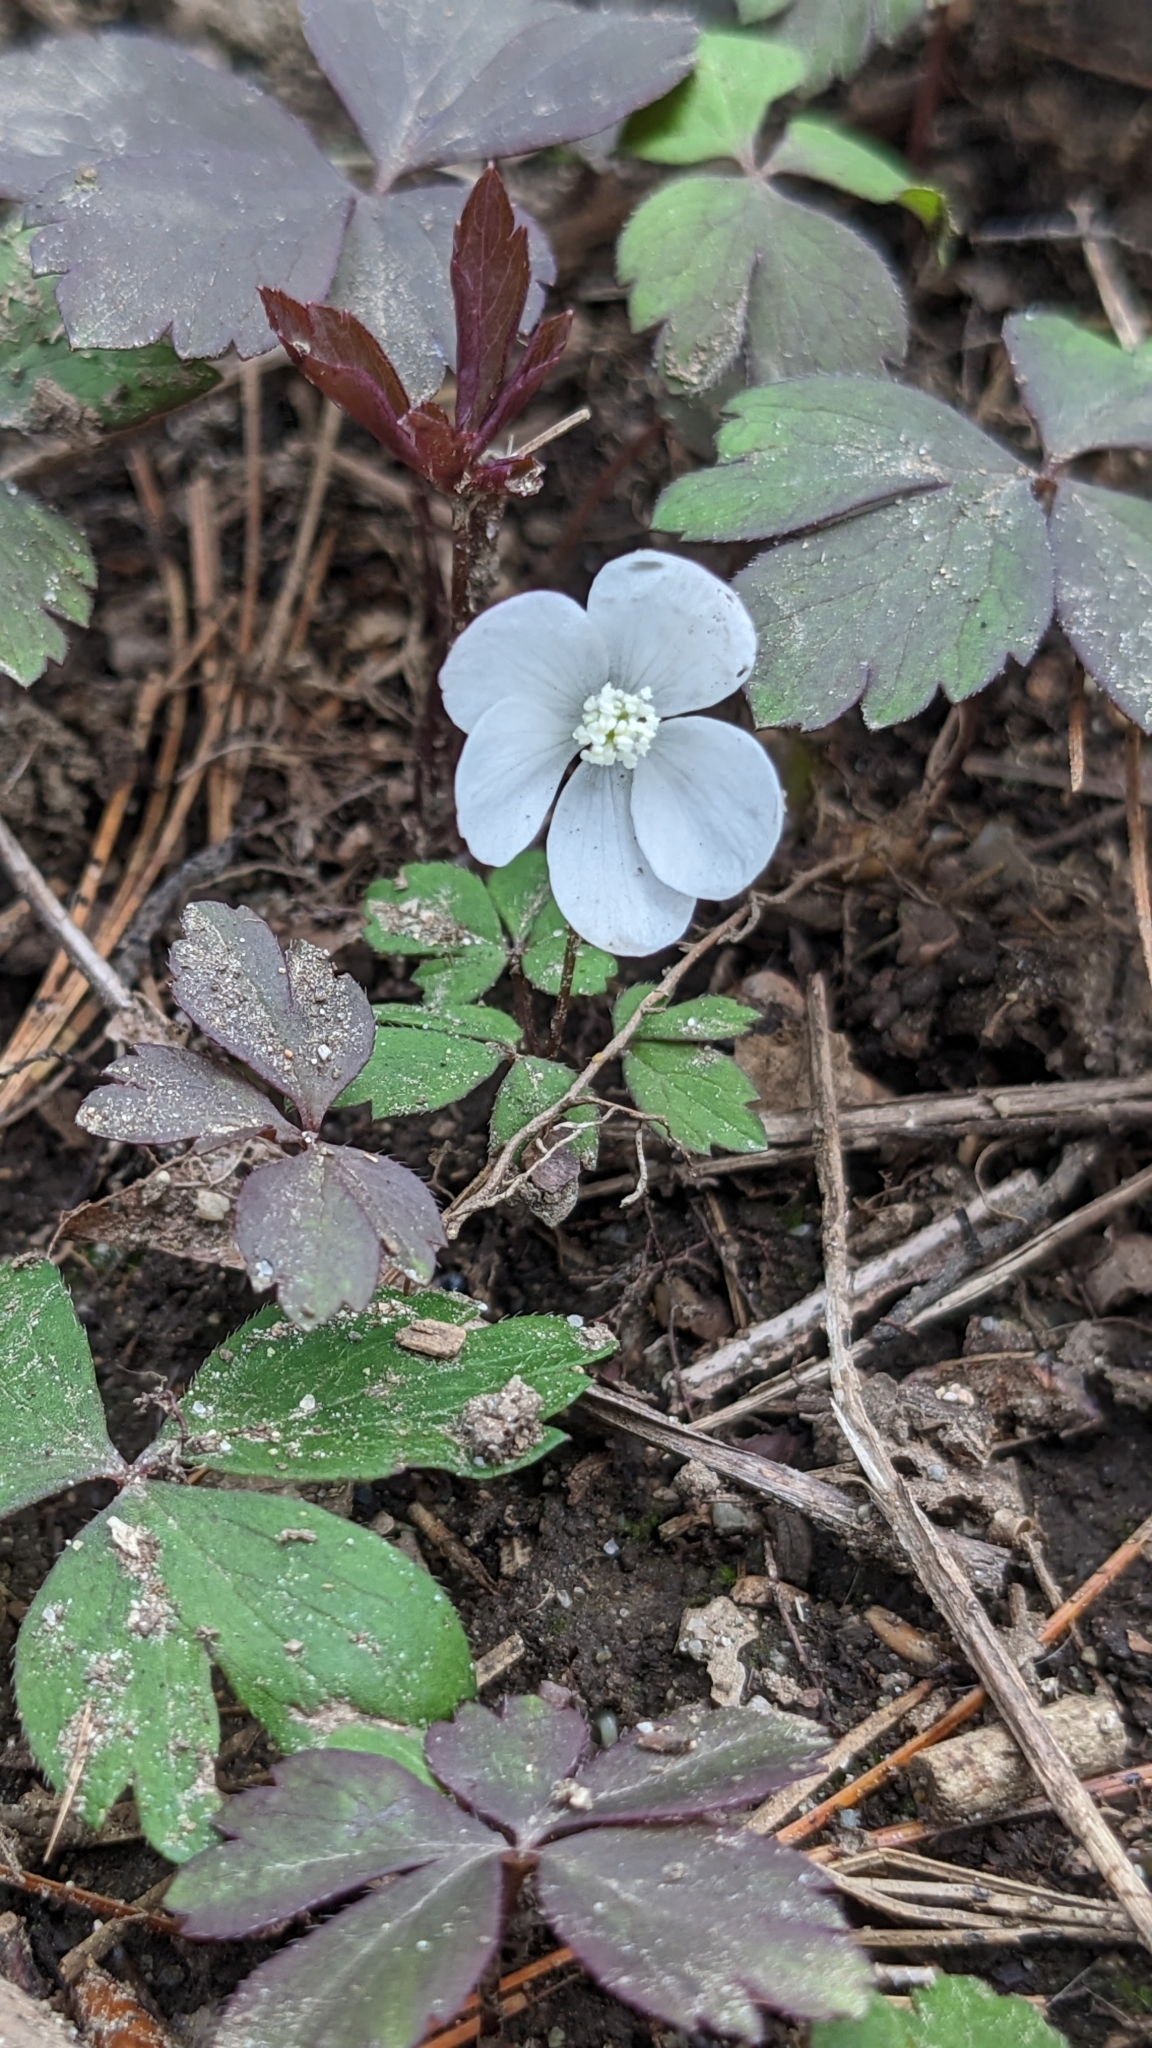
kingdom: Plantae
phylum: Tracheophyta
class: Magnoliopsida
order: Ranunculales
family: Ranunculaceae
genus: Anemone
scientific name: Anemone quinquefolia
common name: Wood anemone
